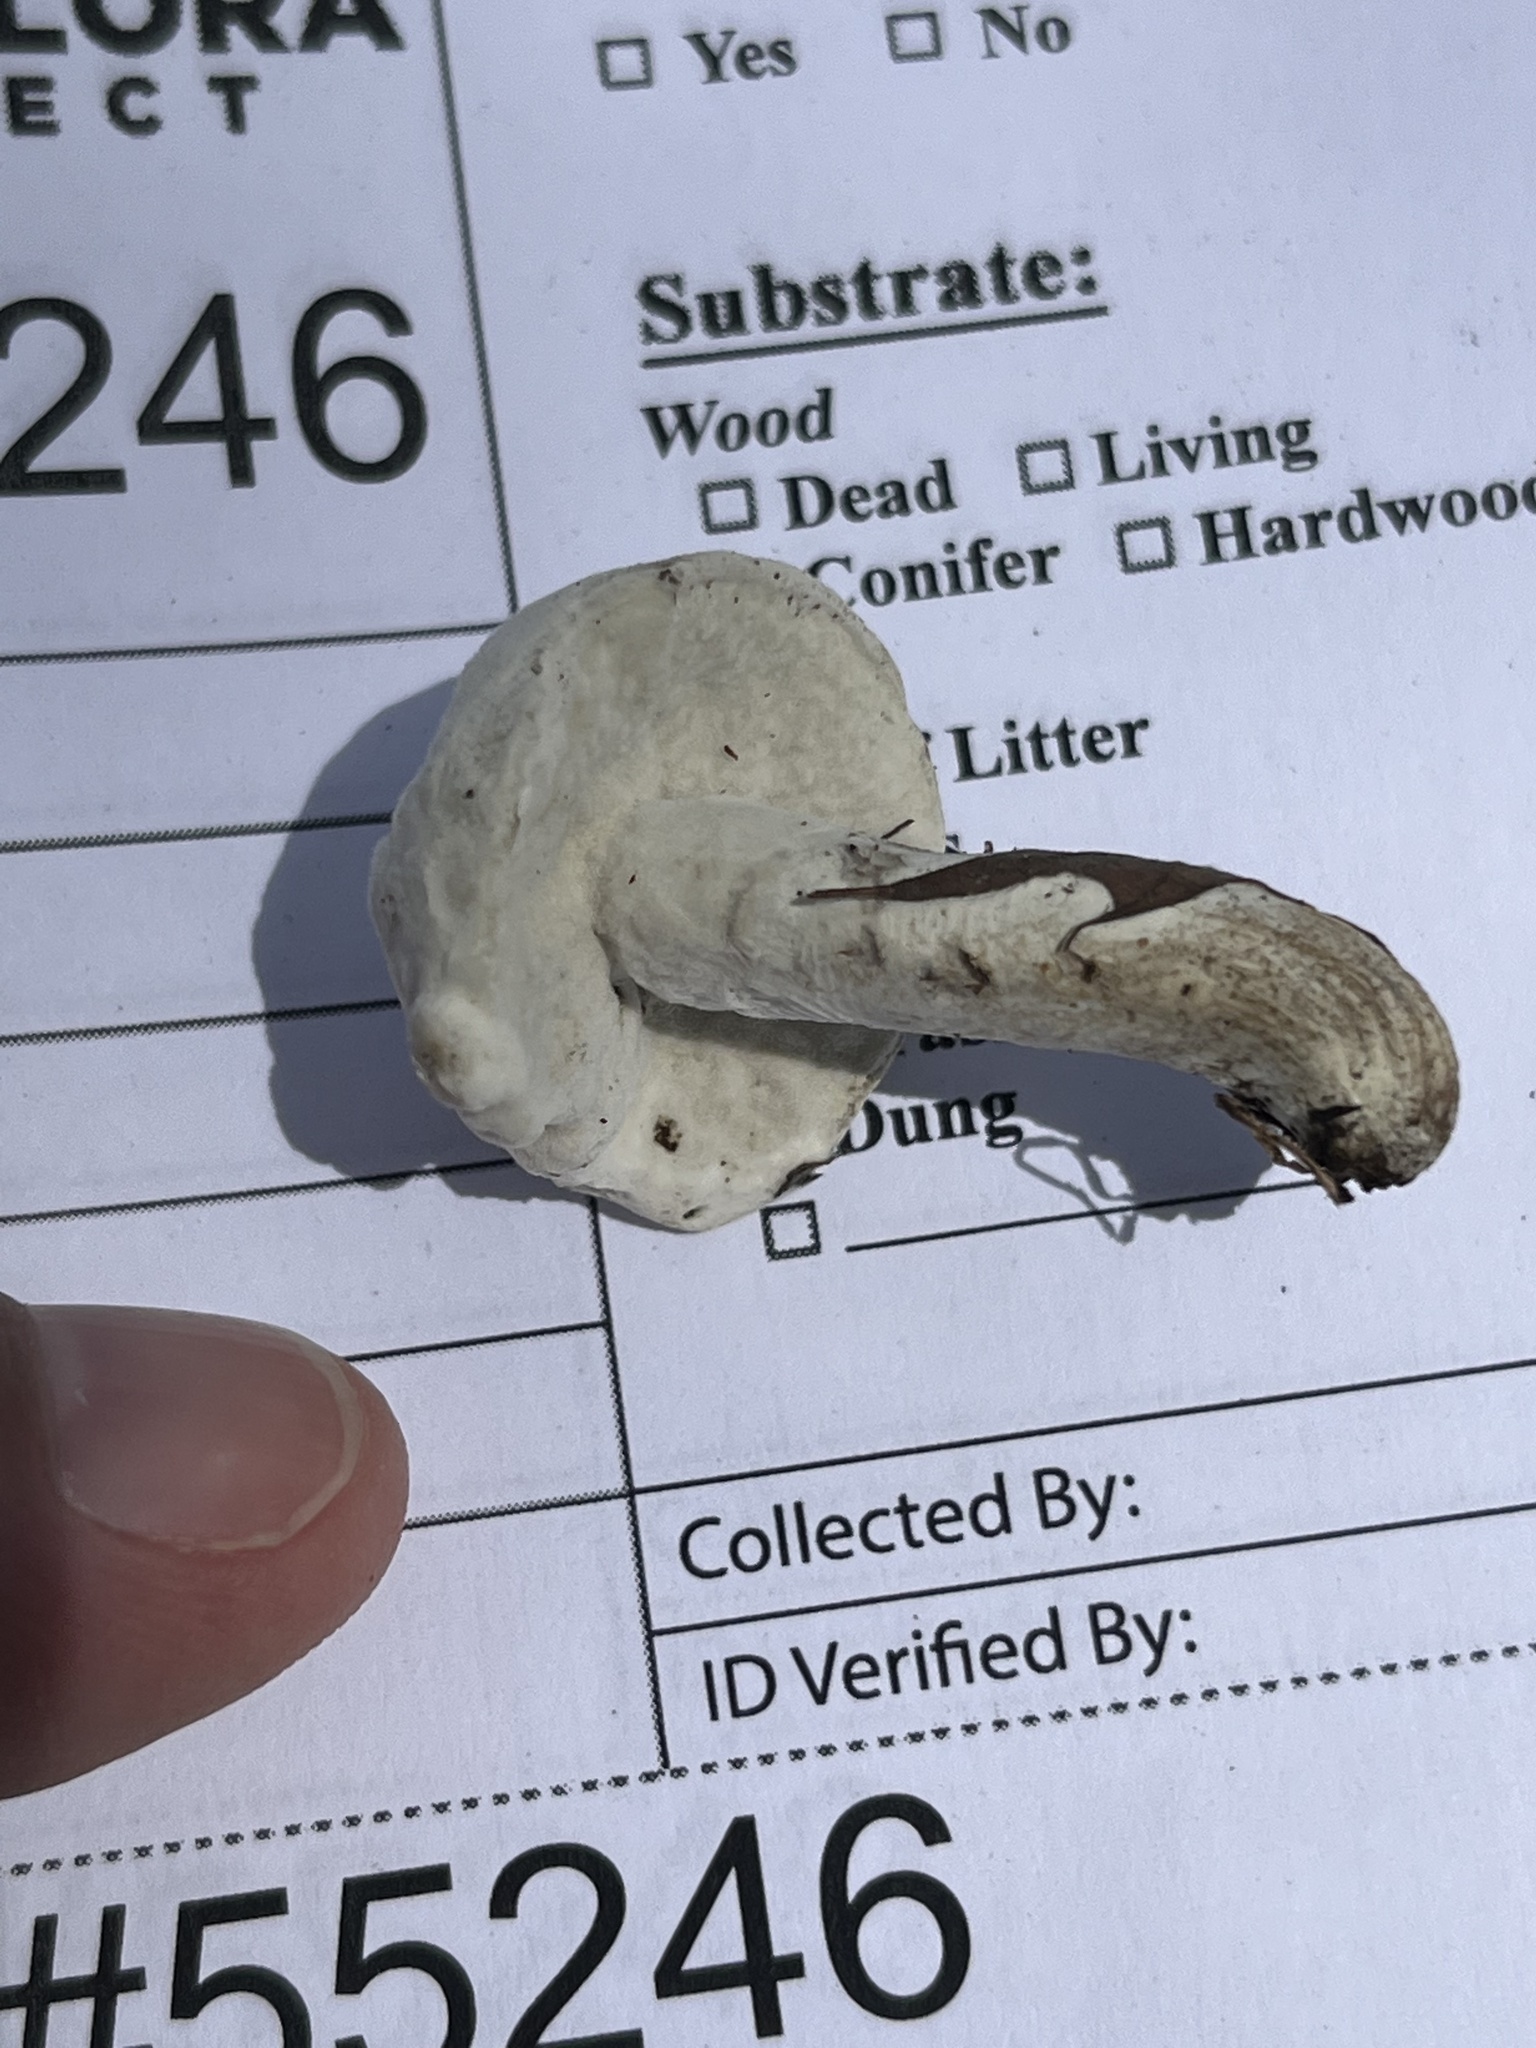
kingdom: Fungi
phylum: Ascomycota
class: Sordariomycetes
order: Hypocreales
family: Hypocreaceae
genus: Hypomyces
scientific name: Hypomyces chrysospermus
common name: Bolete mould
